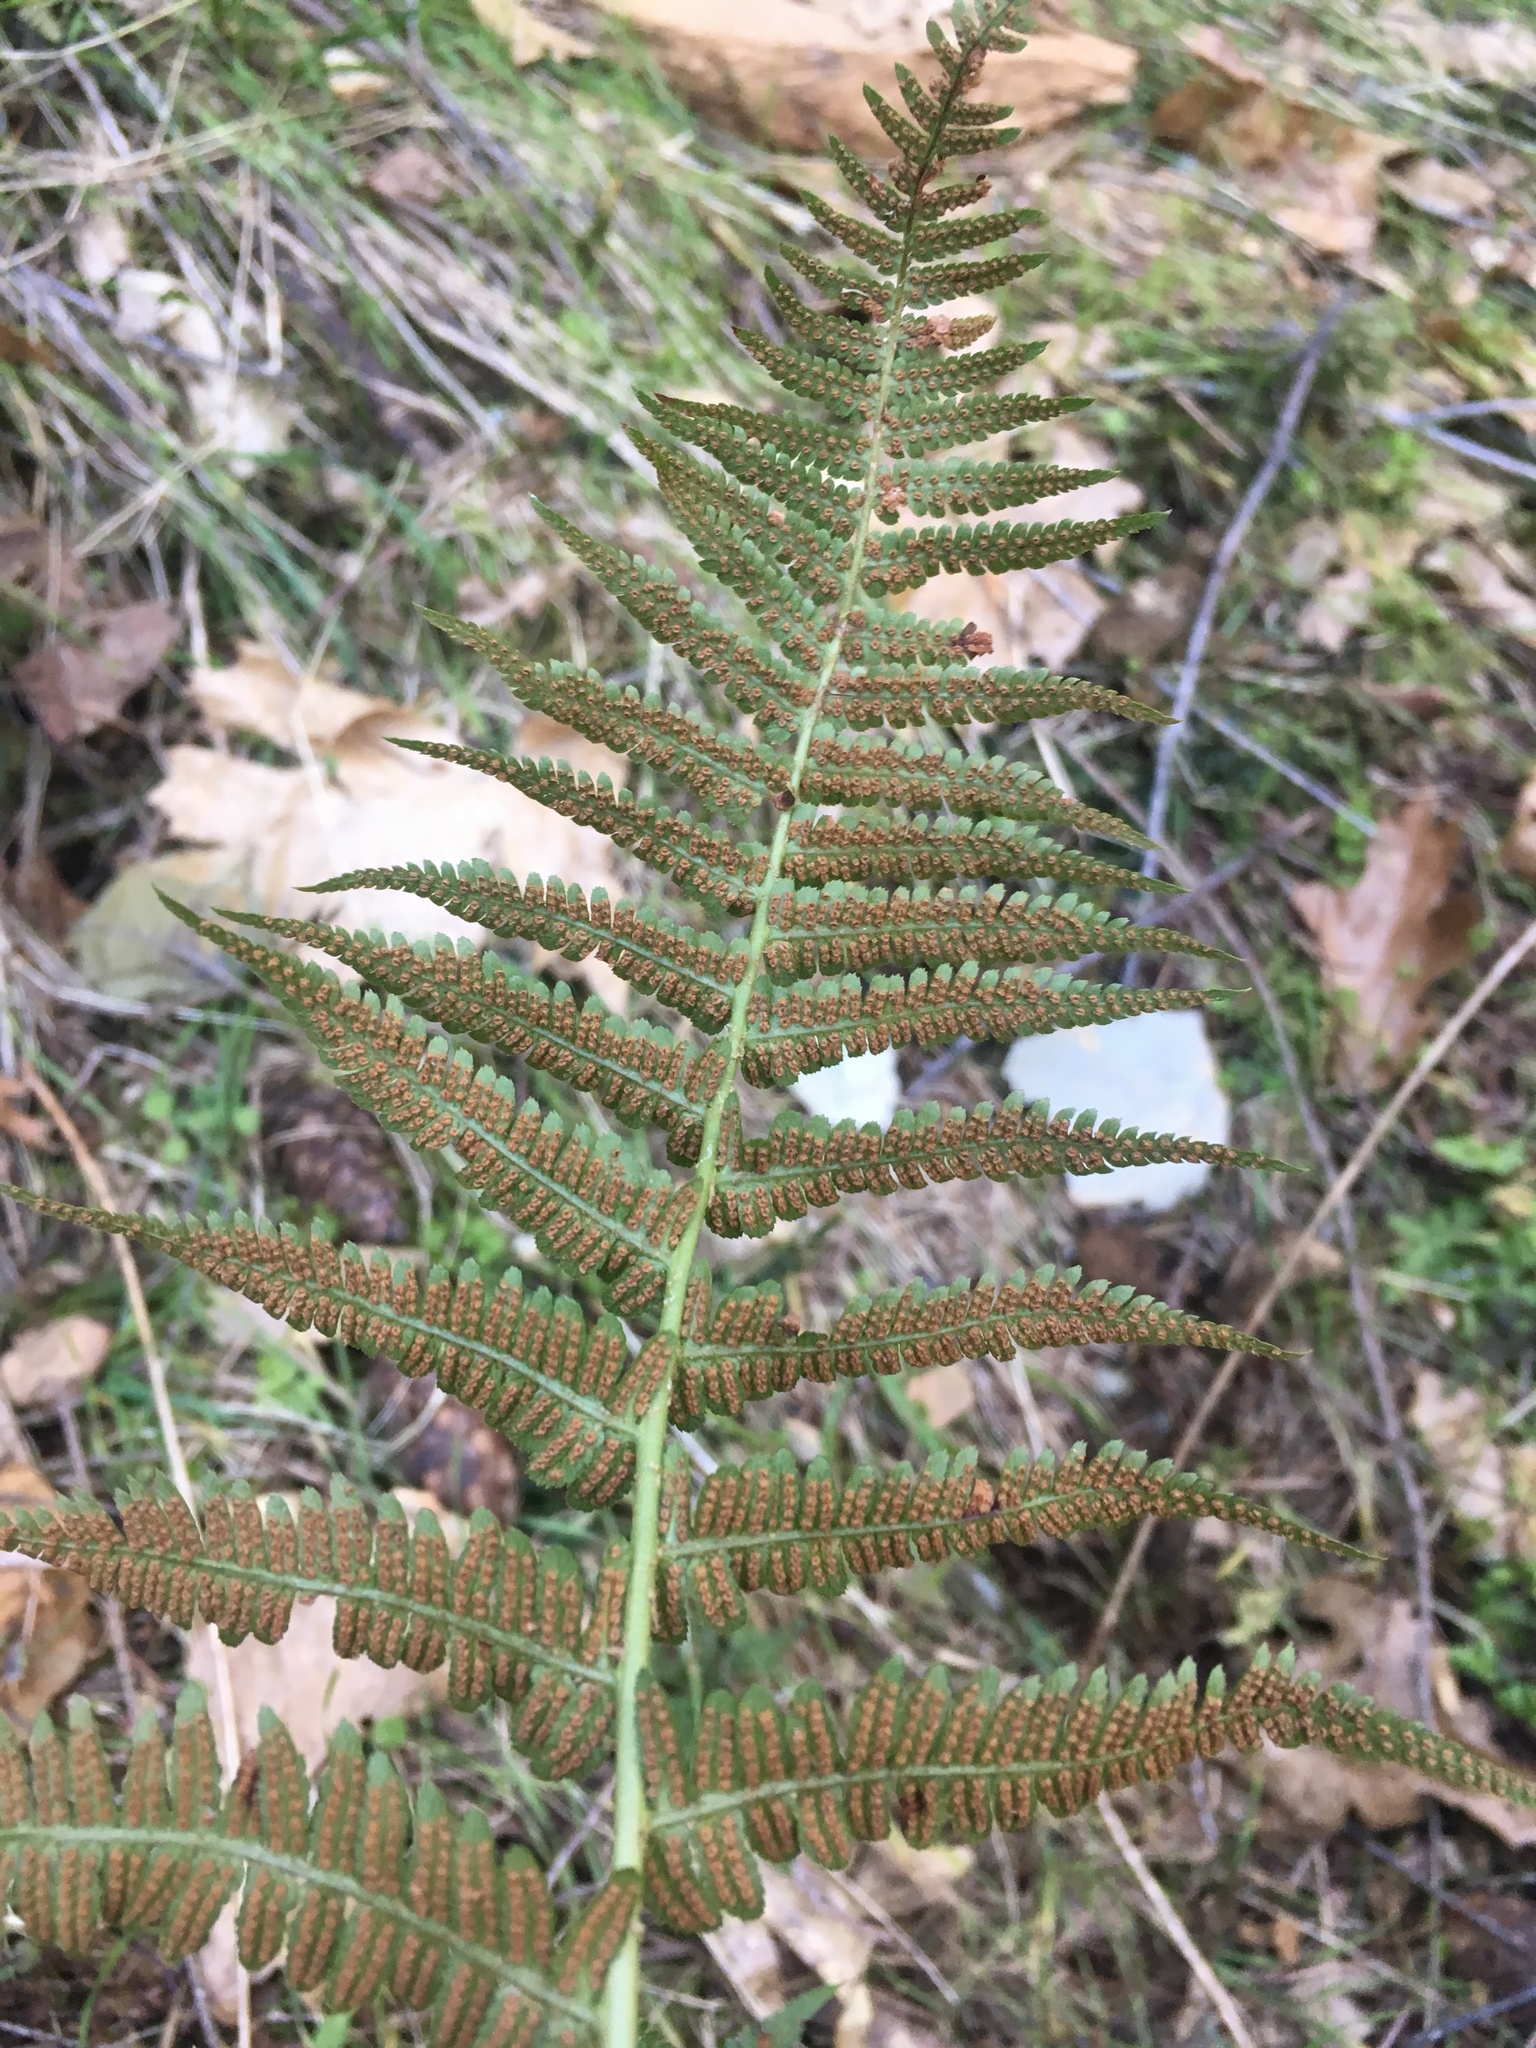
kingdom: Plantae
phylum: Tracheophyta
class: Polypodiopsida
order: Polypodiales
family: Dryopteridaceae
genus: Dryopteris
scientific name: Dryopteris arguta
